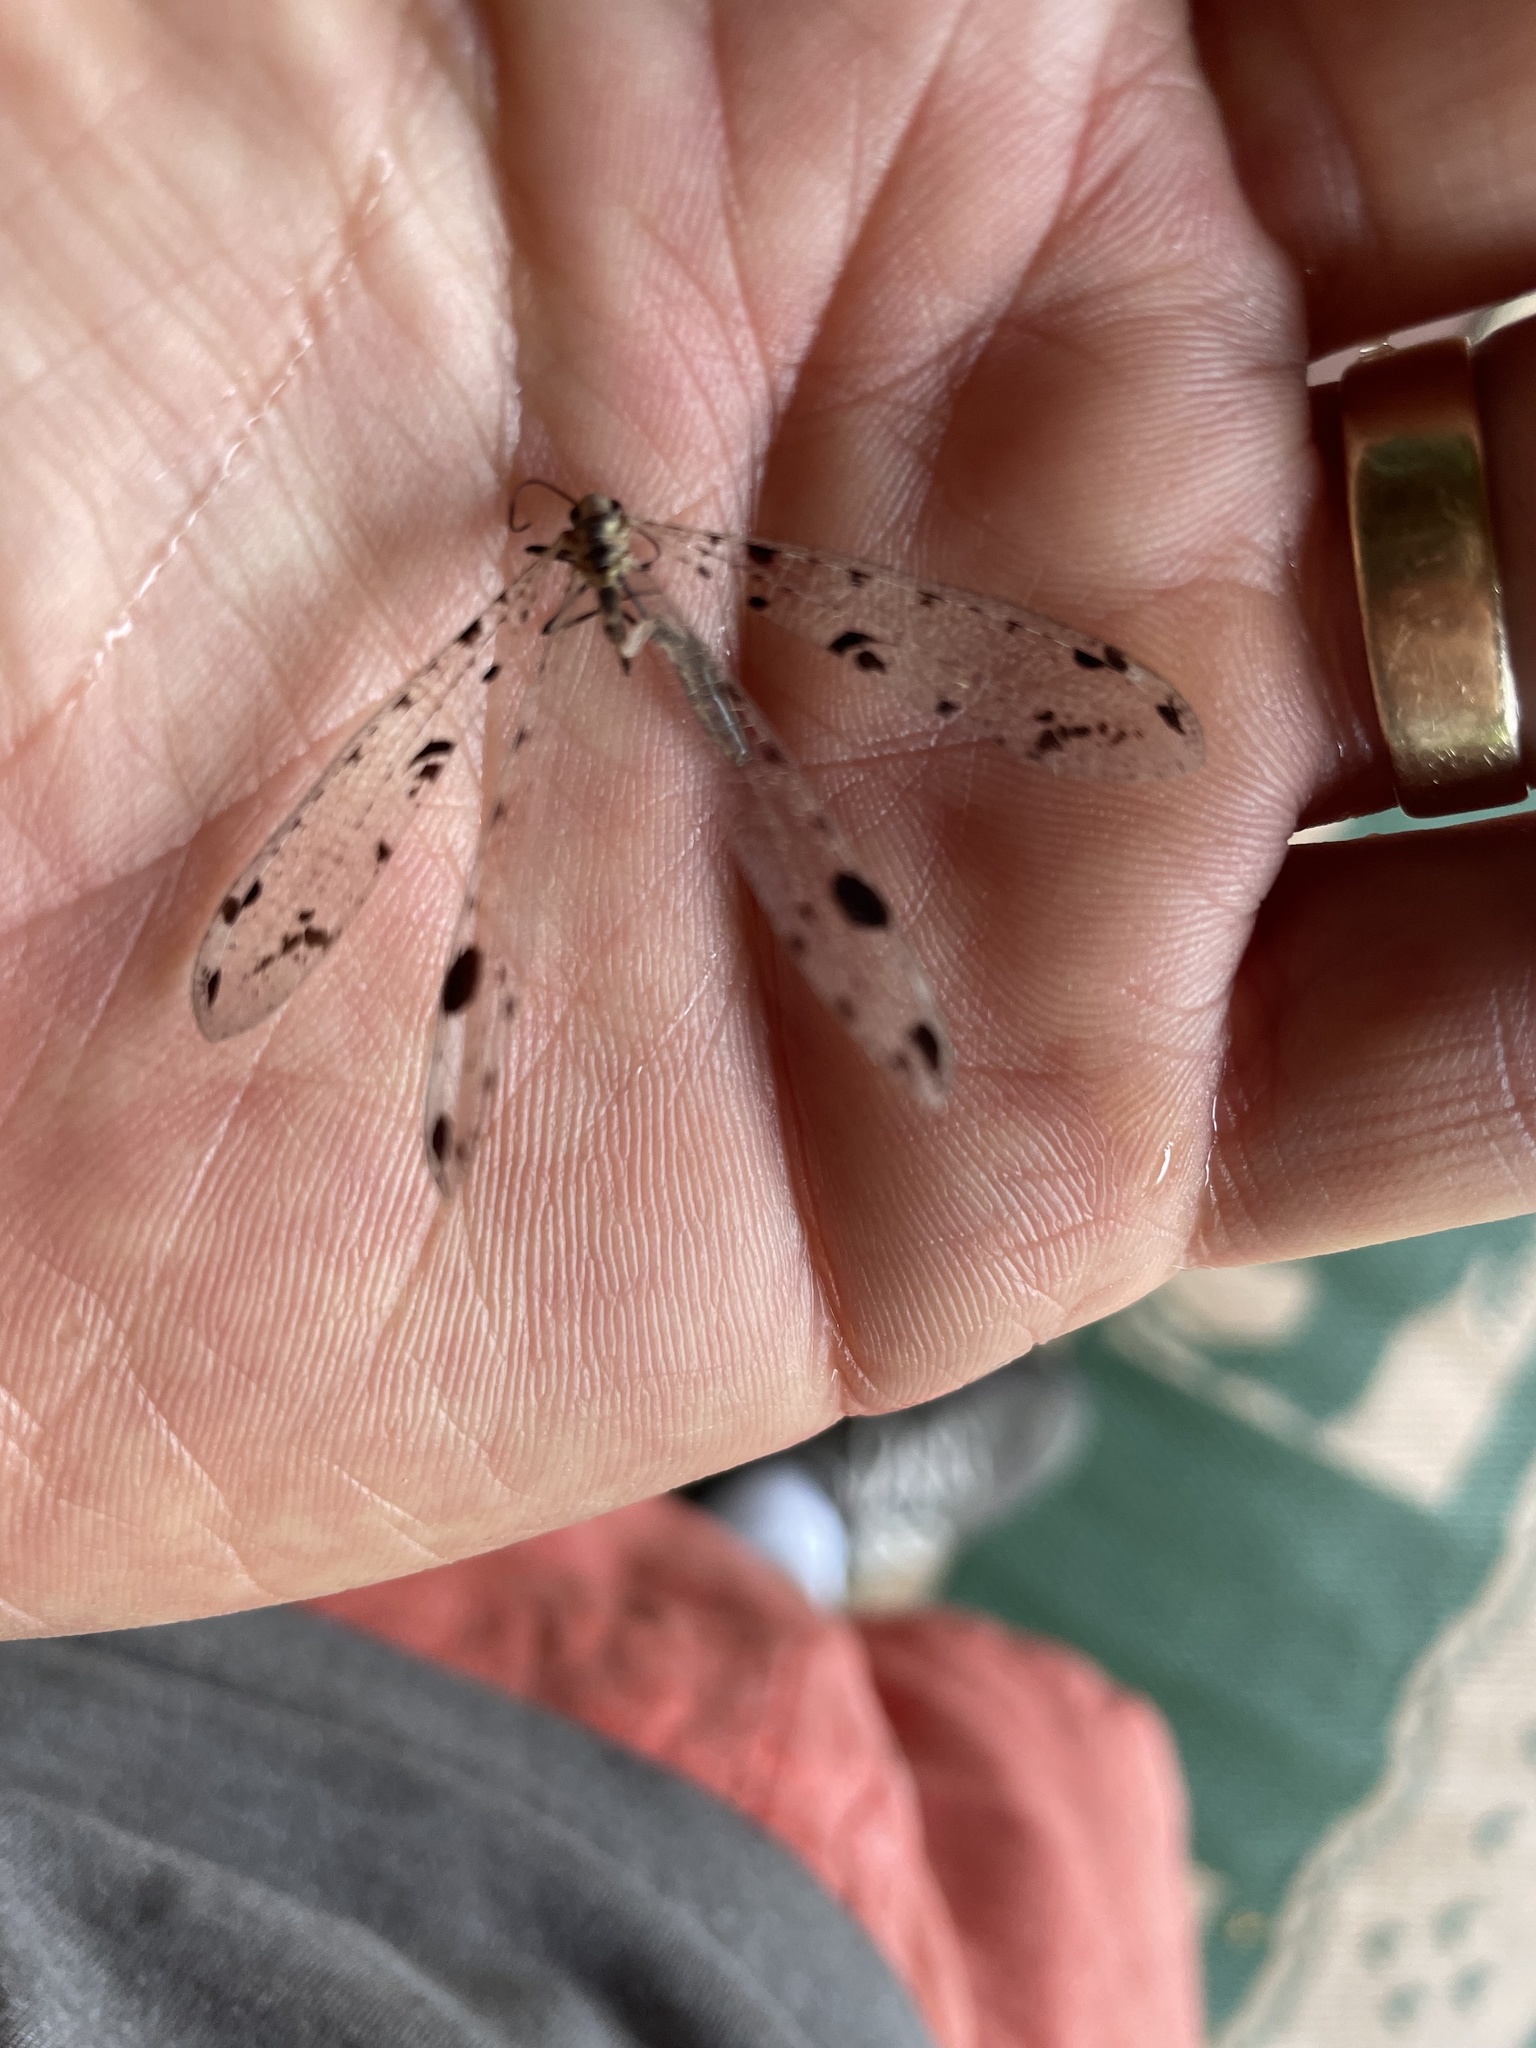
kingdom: Animalia
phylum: Arthropoda
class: Insecta
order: Neuroptera
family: Myrmeleontidae
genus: Dendroleon
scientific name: Dendroleon obsoletus
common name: Eastern spotted-winged antlion
